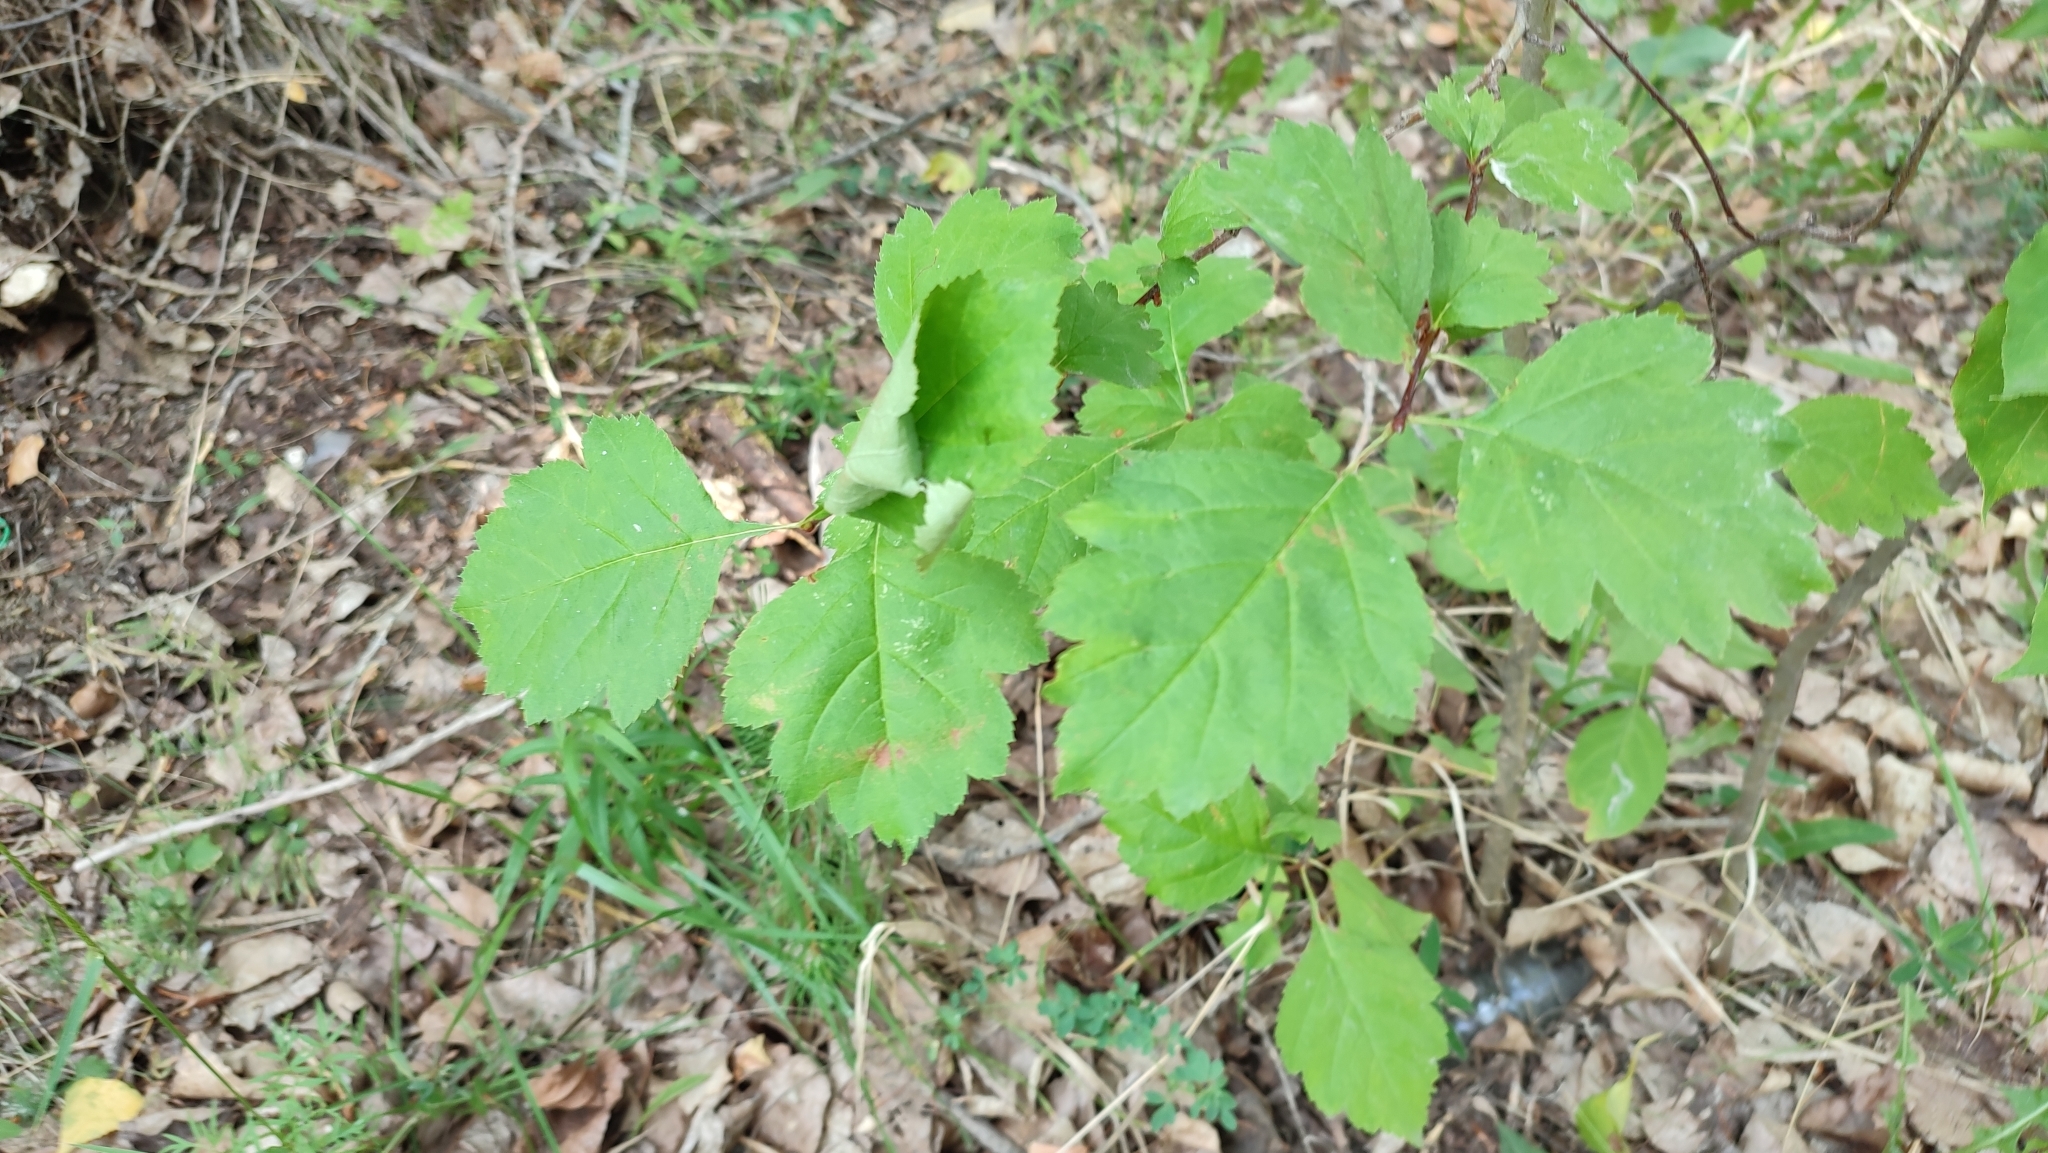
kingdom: Plantae
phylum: Tracheophyta
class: Magnoliopsida
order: Rosales
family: Rosaceae
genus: Crataegus
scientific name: Crataegus sanguinea
